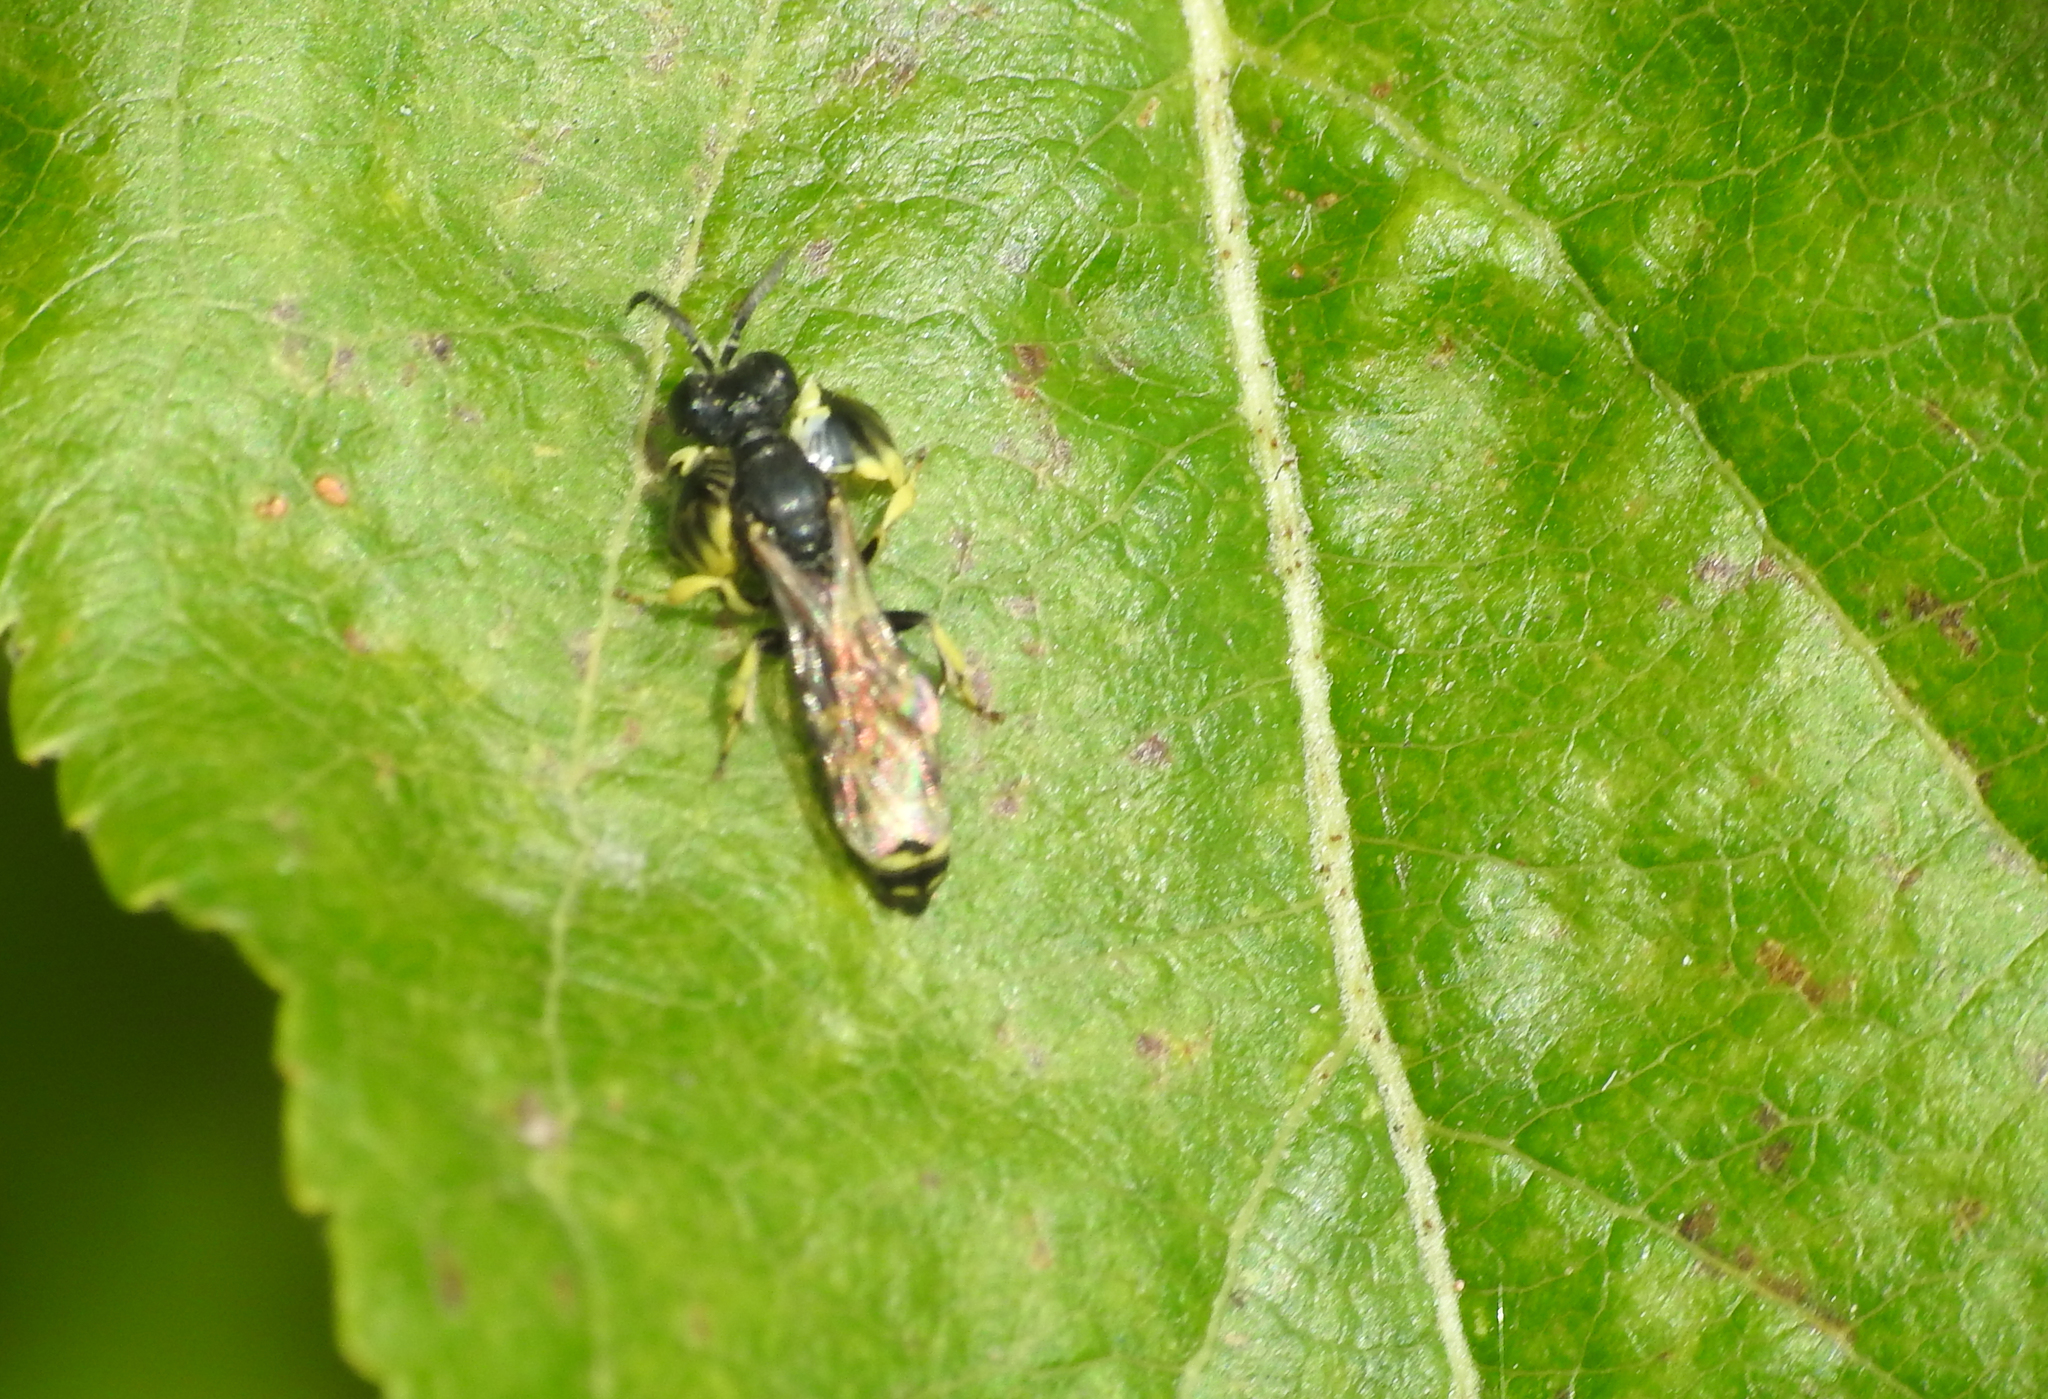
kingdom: Animalia
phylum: Arthropoda
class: Insecta
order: Hymenoptera
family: Crabronidae
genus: Crabro
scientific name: Crabro latipes
